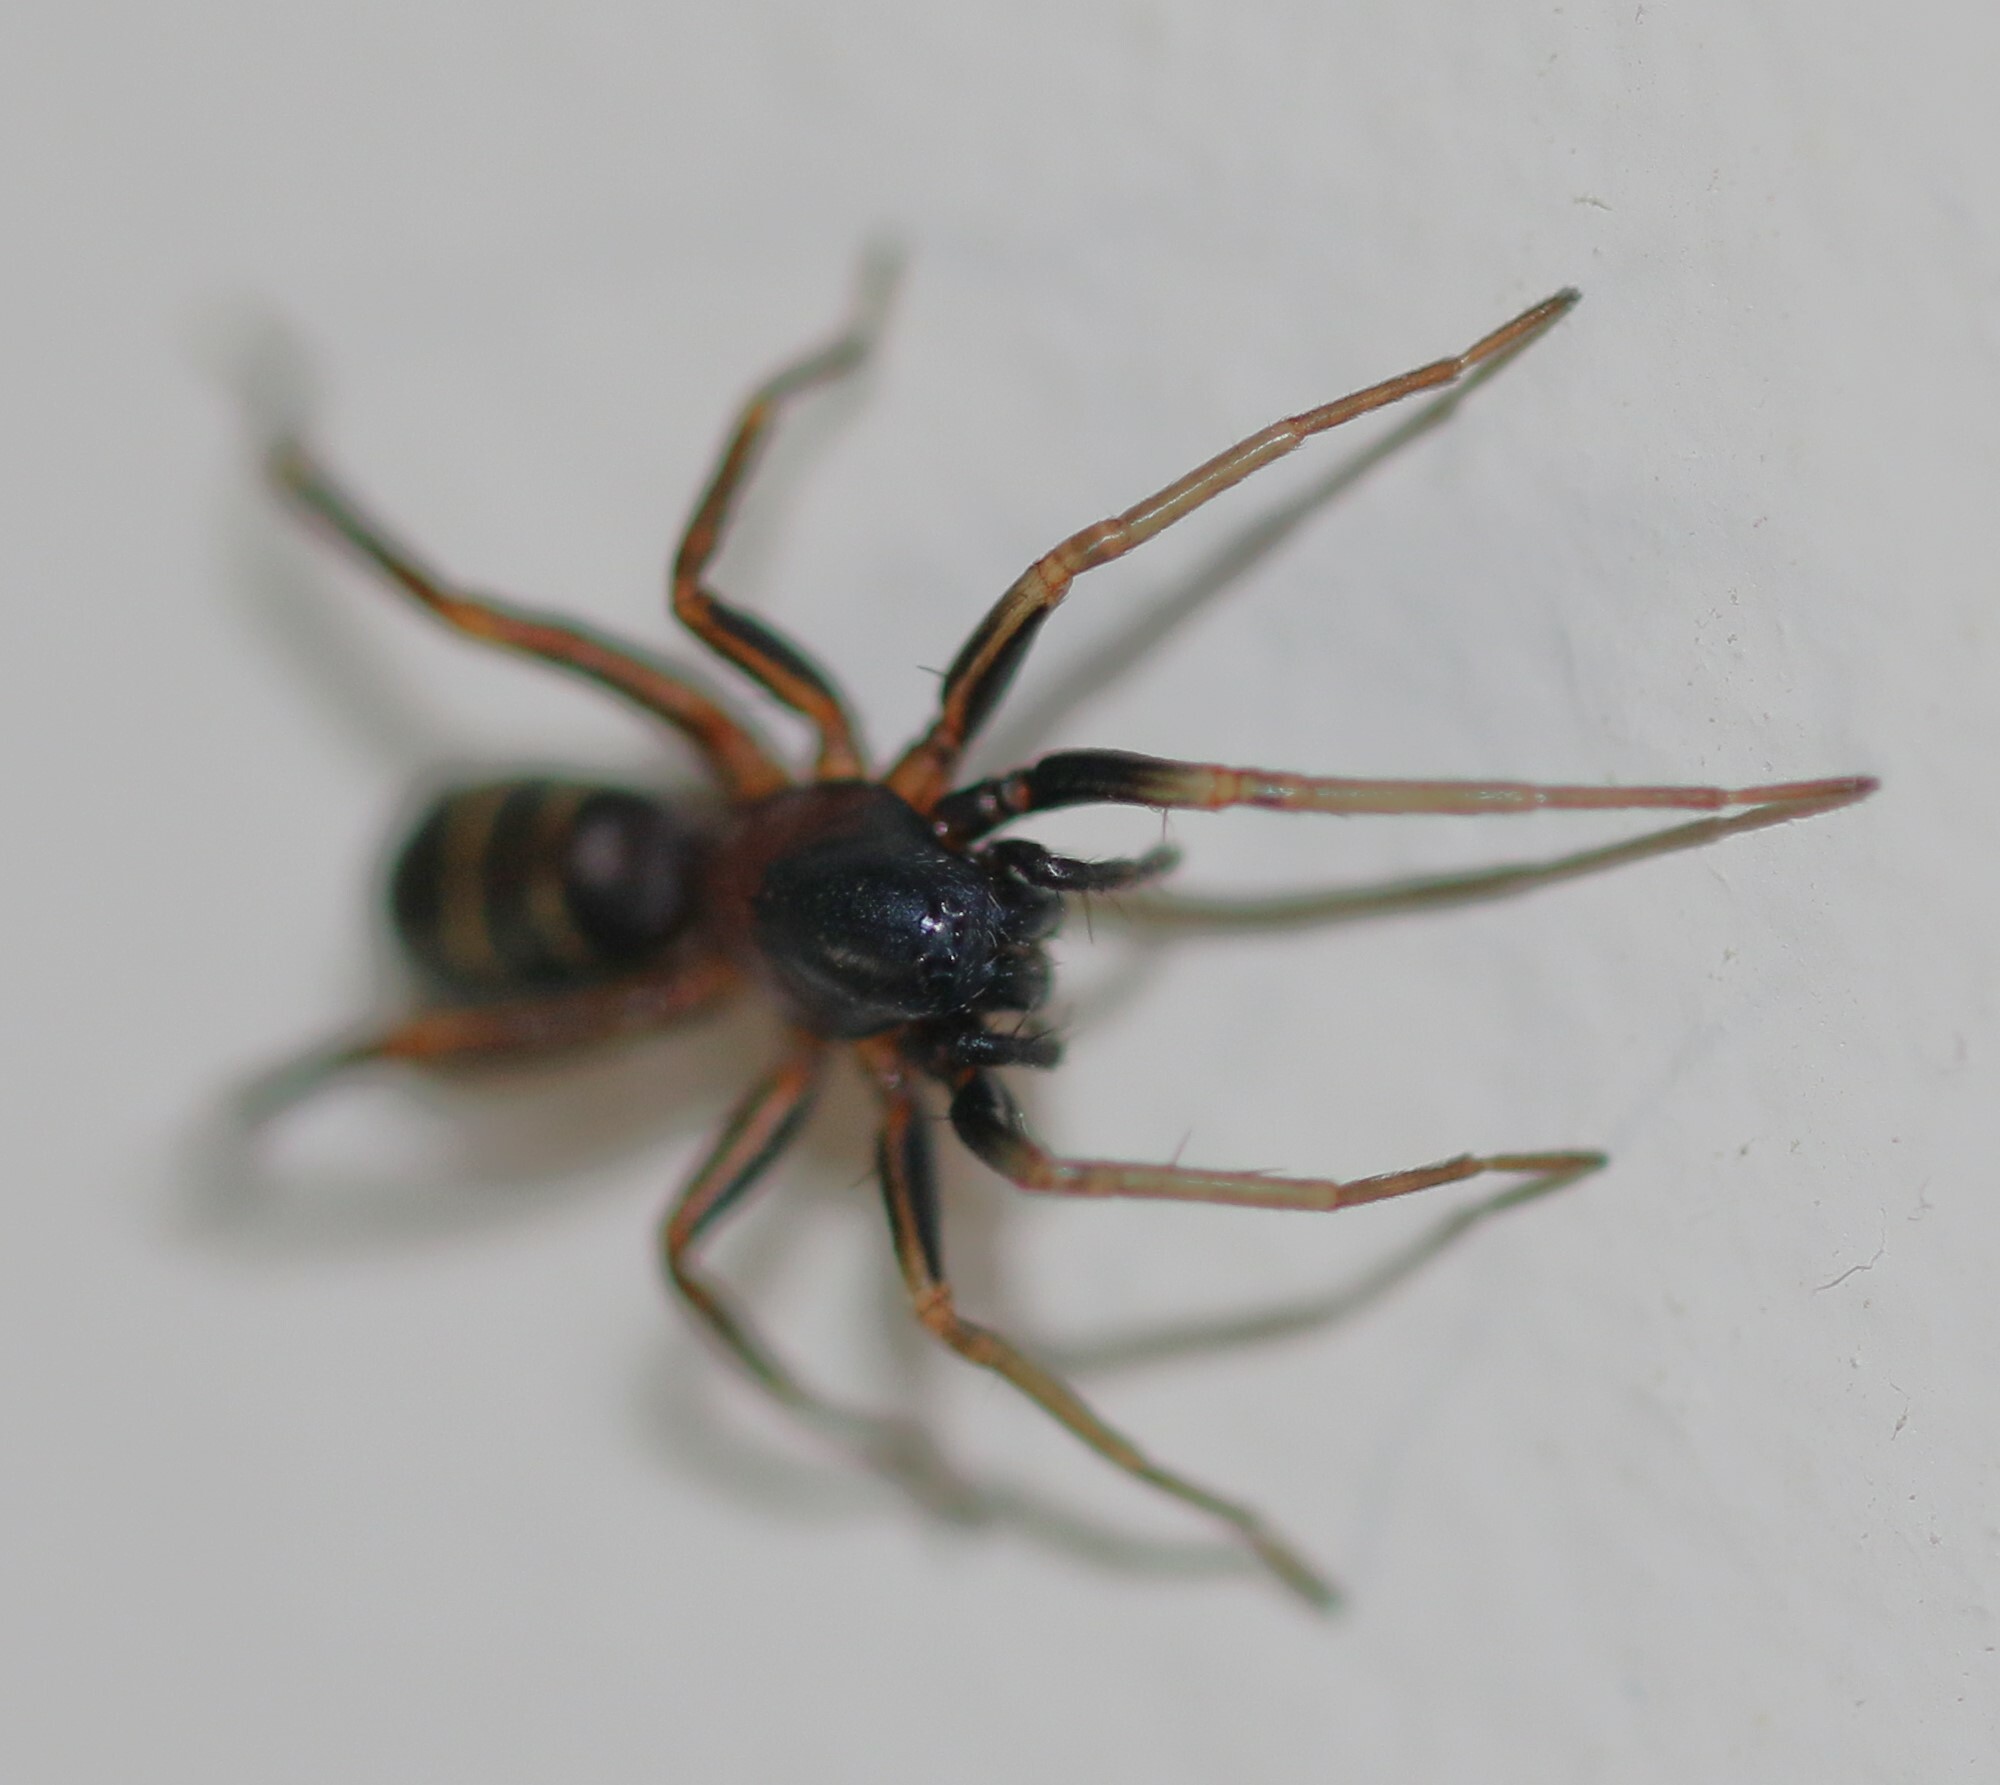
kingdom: Animalia
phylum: Arthropoda
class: Arachnida
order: Araneae
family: Corinnidae
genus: Castianeira
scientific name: Castianeira cingulata
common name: Two-banded ant-mimic sac spider
